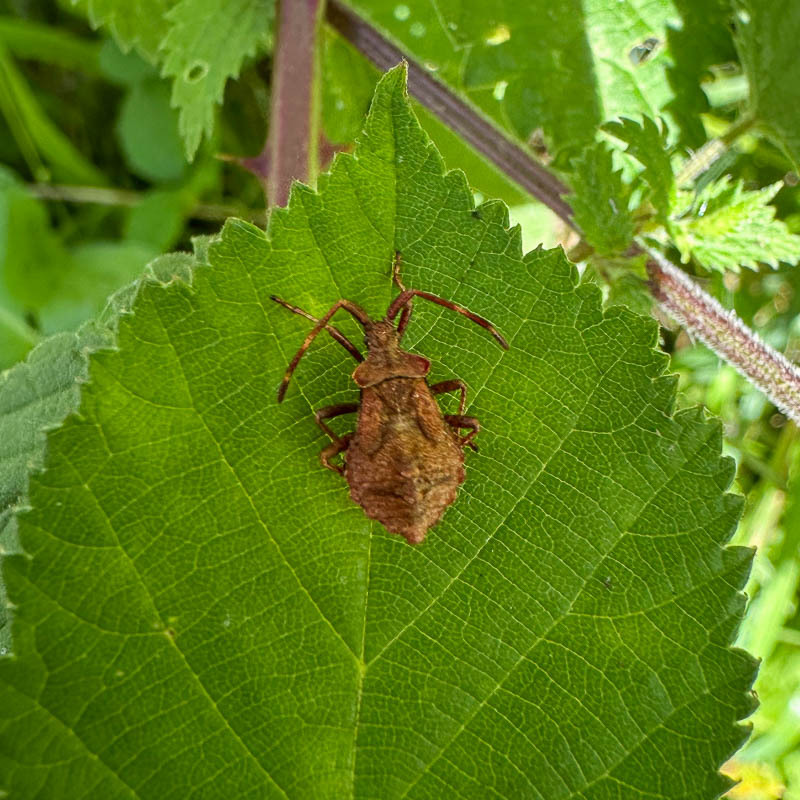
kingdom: Animalia
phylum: Arthropoda
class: Insecta
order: Hemiptera
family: Coreidae
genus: Coreus
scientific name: Coreus marginatus
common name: Dock bug
